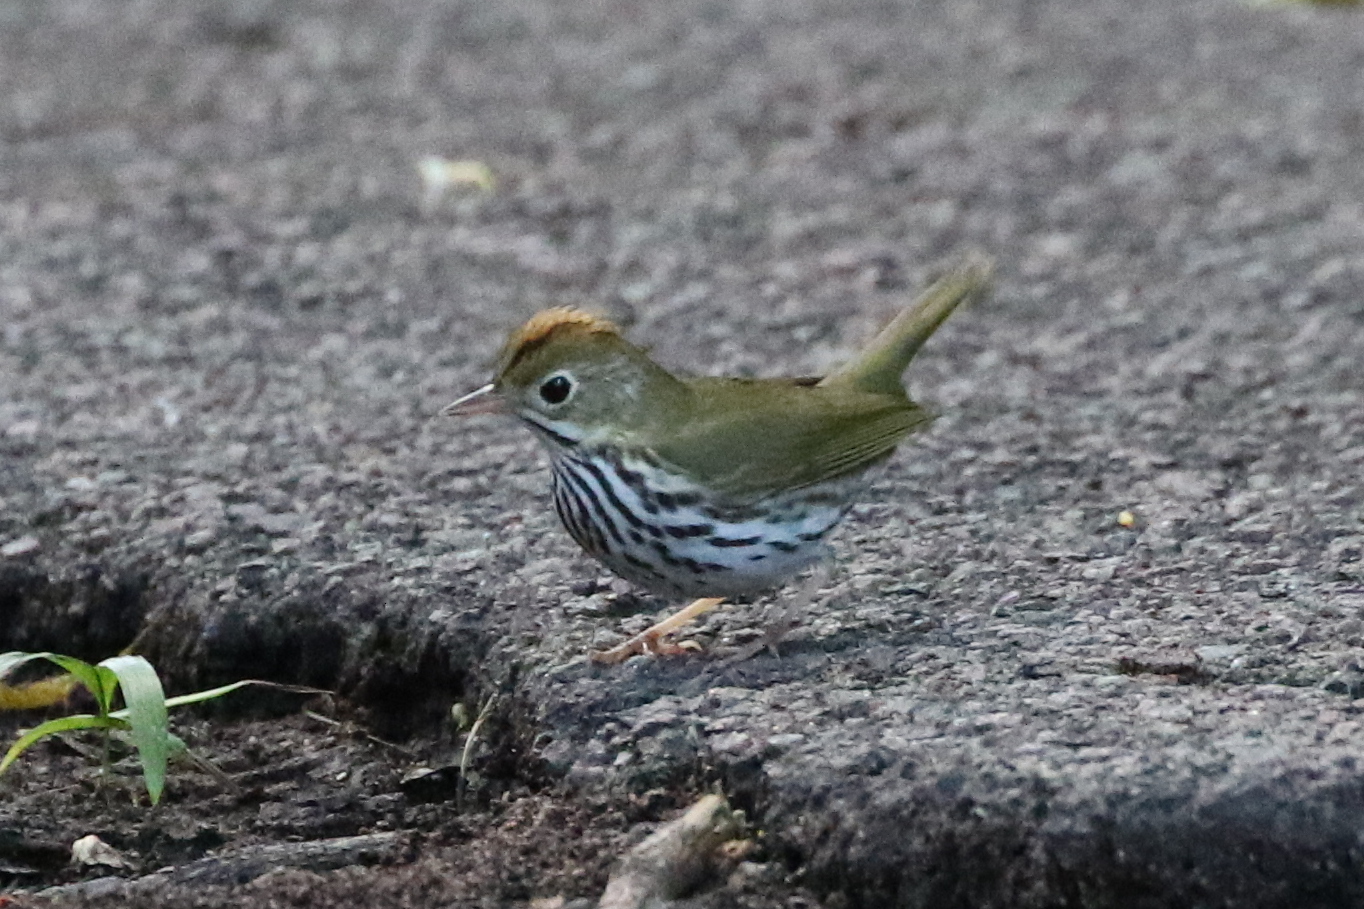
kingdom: Animalia
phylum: Chordata
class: Aves
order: Passeriformes
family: Parulidae
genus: Seiurus
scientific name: Seiurus aurocapilla
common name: Ovenbird
